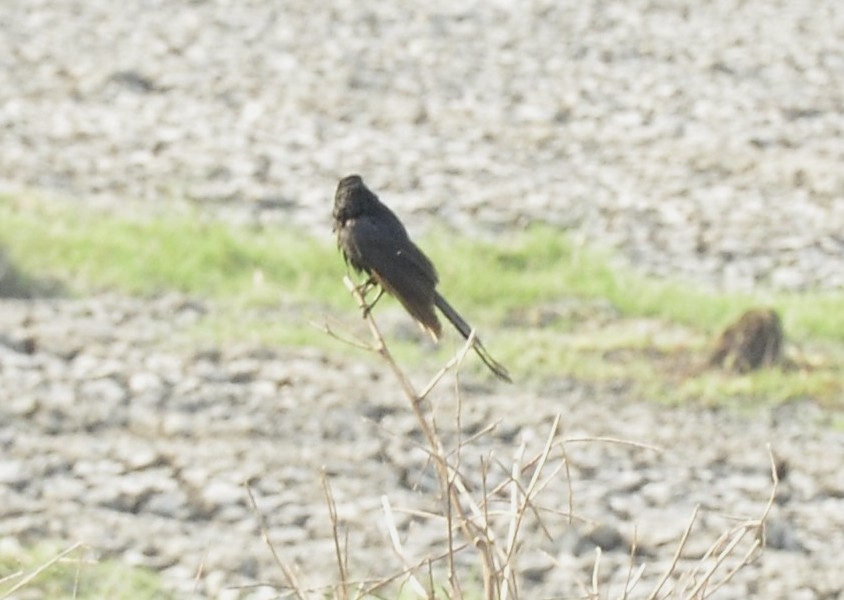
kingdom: Animalia
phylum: Chordata
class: Aves
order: Passeriformes
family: Dicruridae
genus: Dicrurus
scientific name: Dicrurus macrocercus
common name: Black drongo
